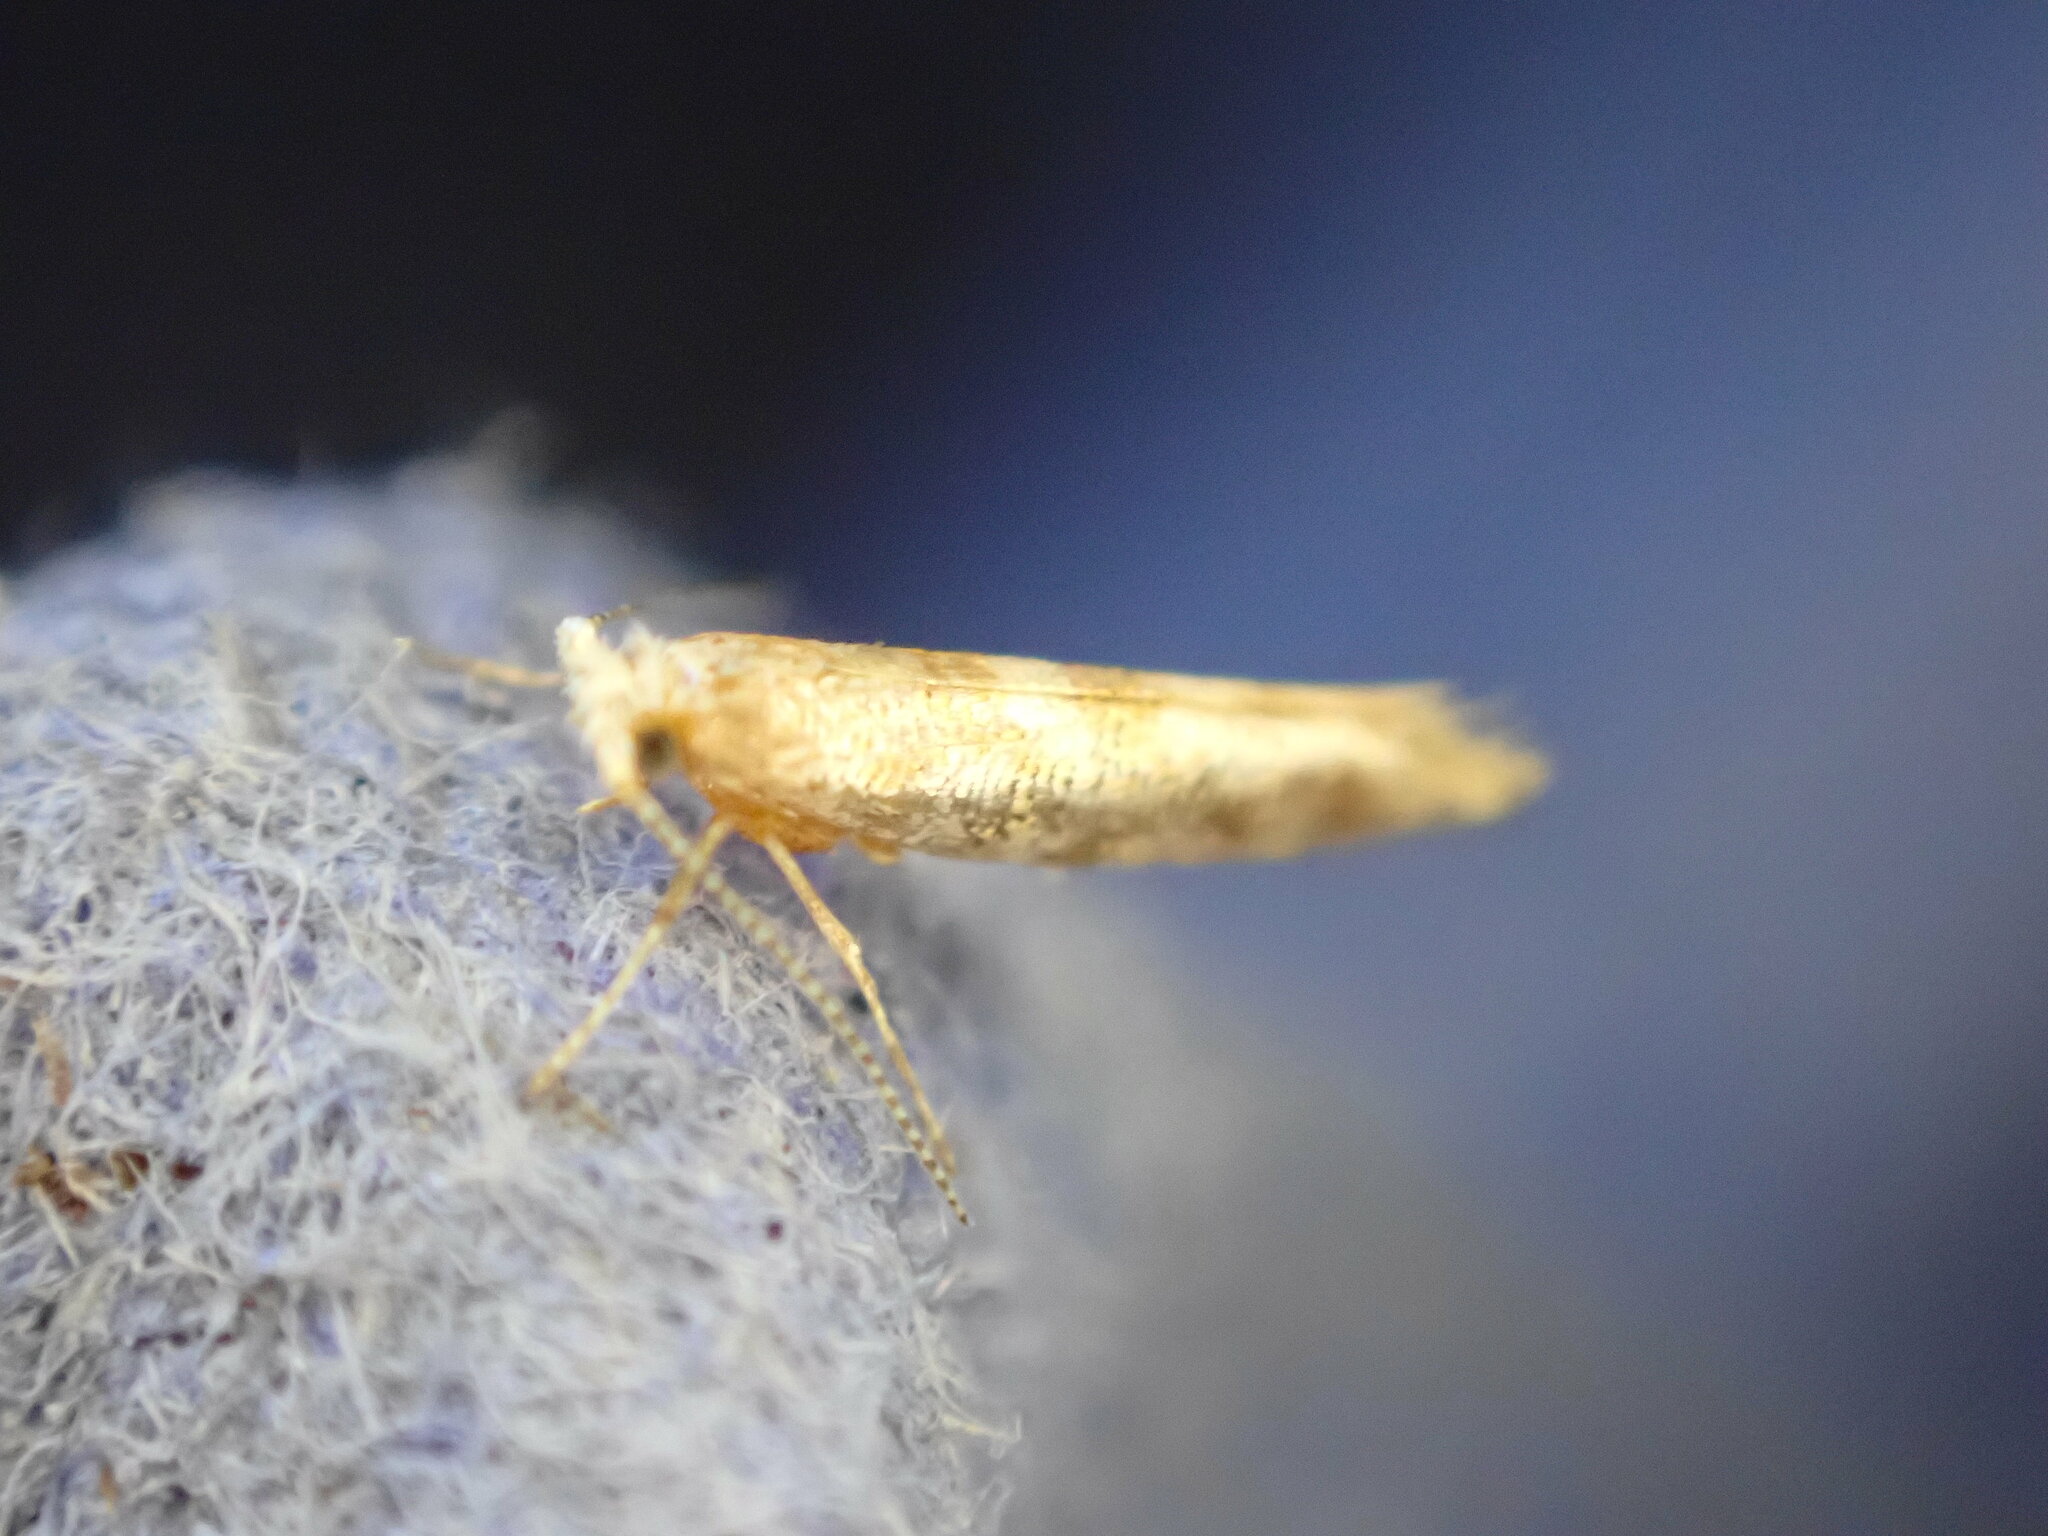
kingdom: Animalia
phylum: Arthropoda
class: Insecta
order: Lepidoptera
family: Argyresthiidae
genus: Argyresthia
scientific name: Argyresthia cupressella
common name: Cypress tip moth
